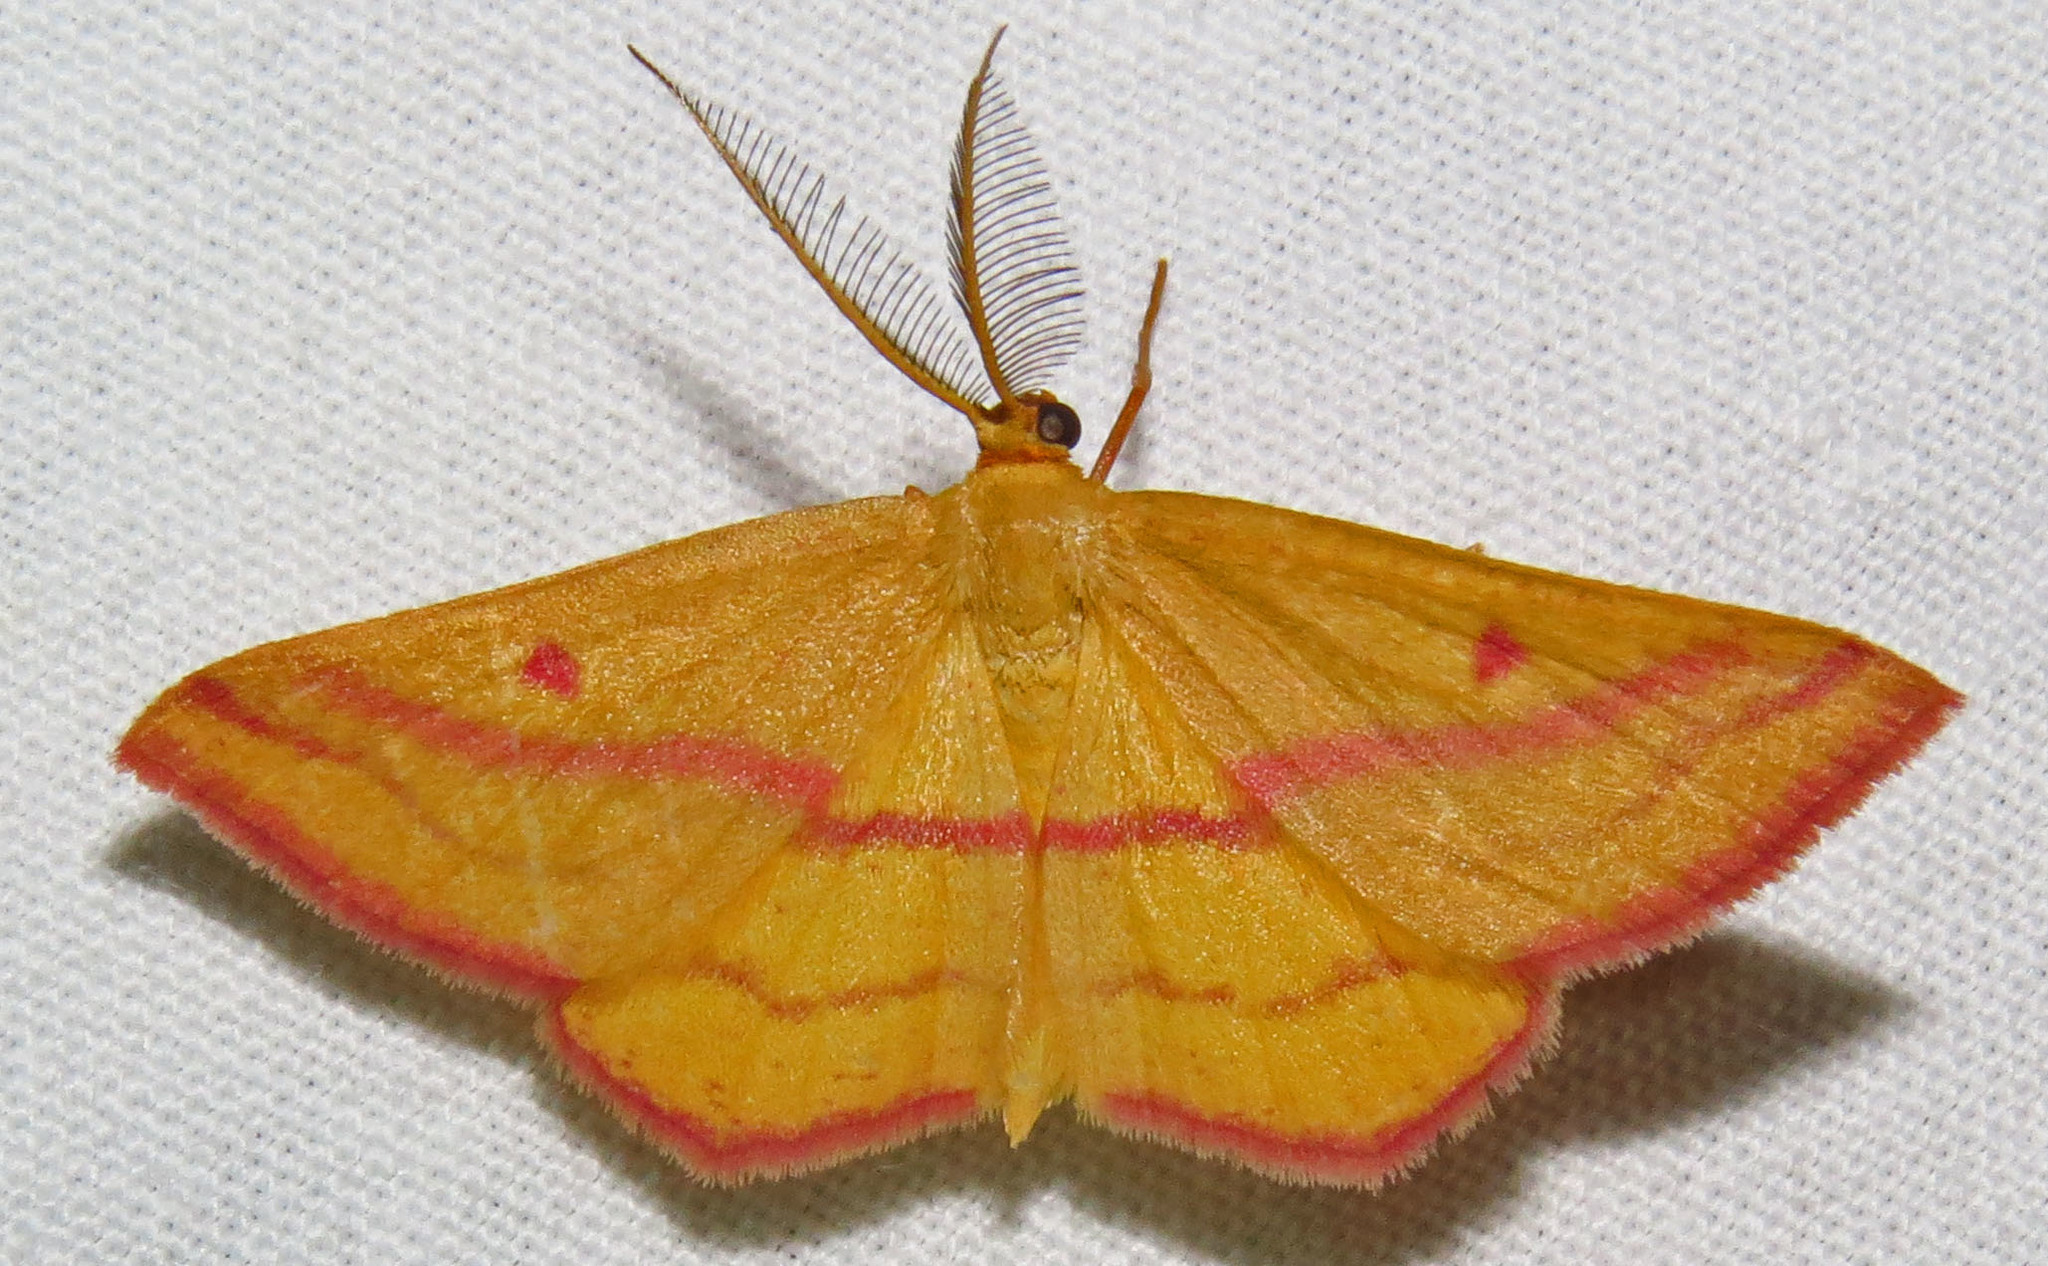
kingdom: Animalia
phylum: Arthropoda
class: Insecta
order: Lepidoptera
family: Geometridae
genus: Haematopis
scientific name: Haematopis grataria
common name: Chickweed geometer
